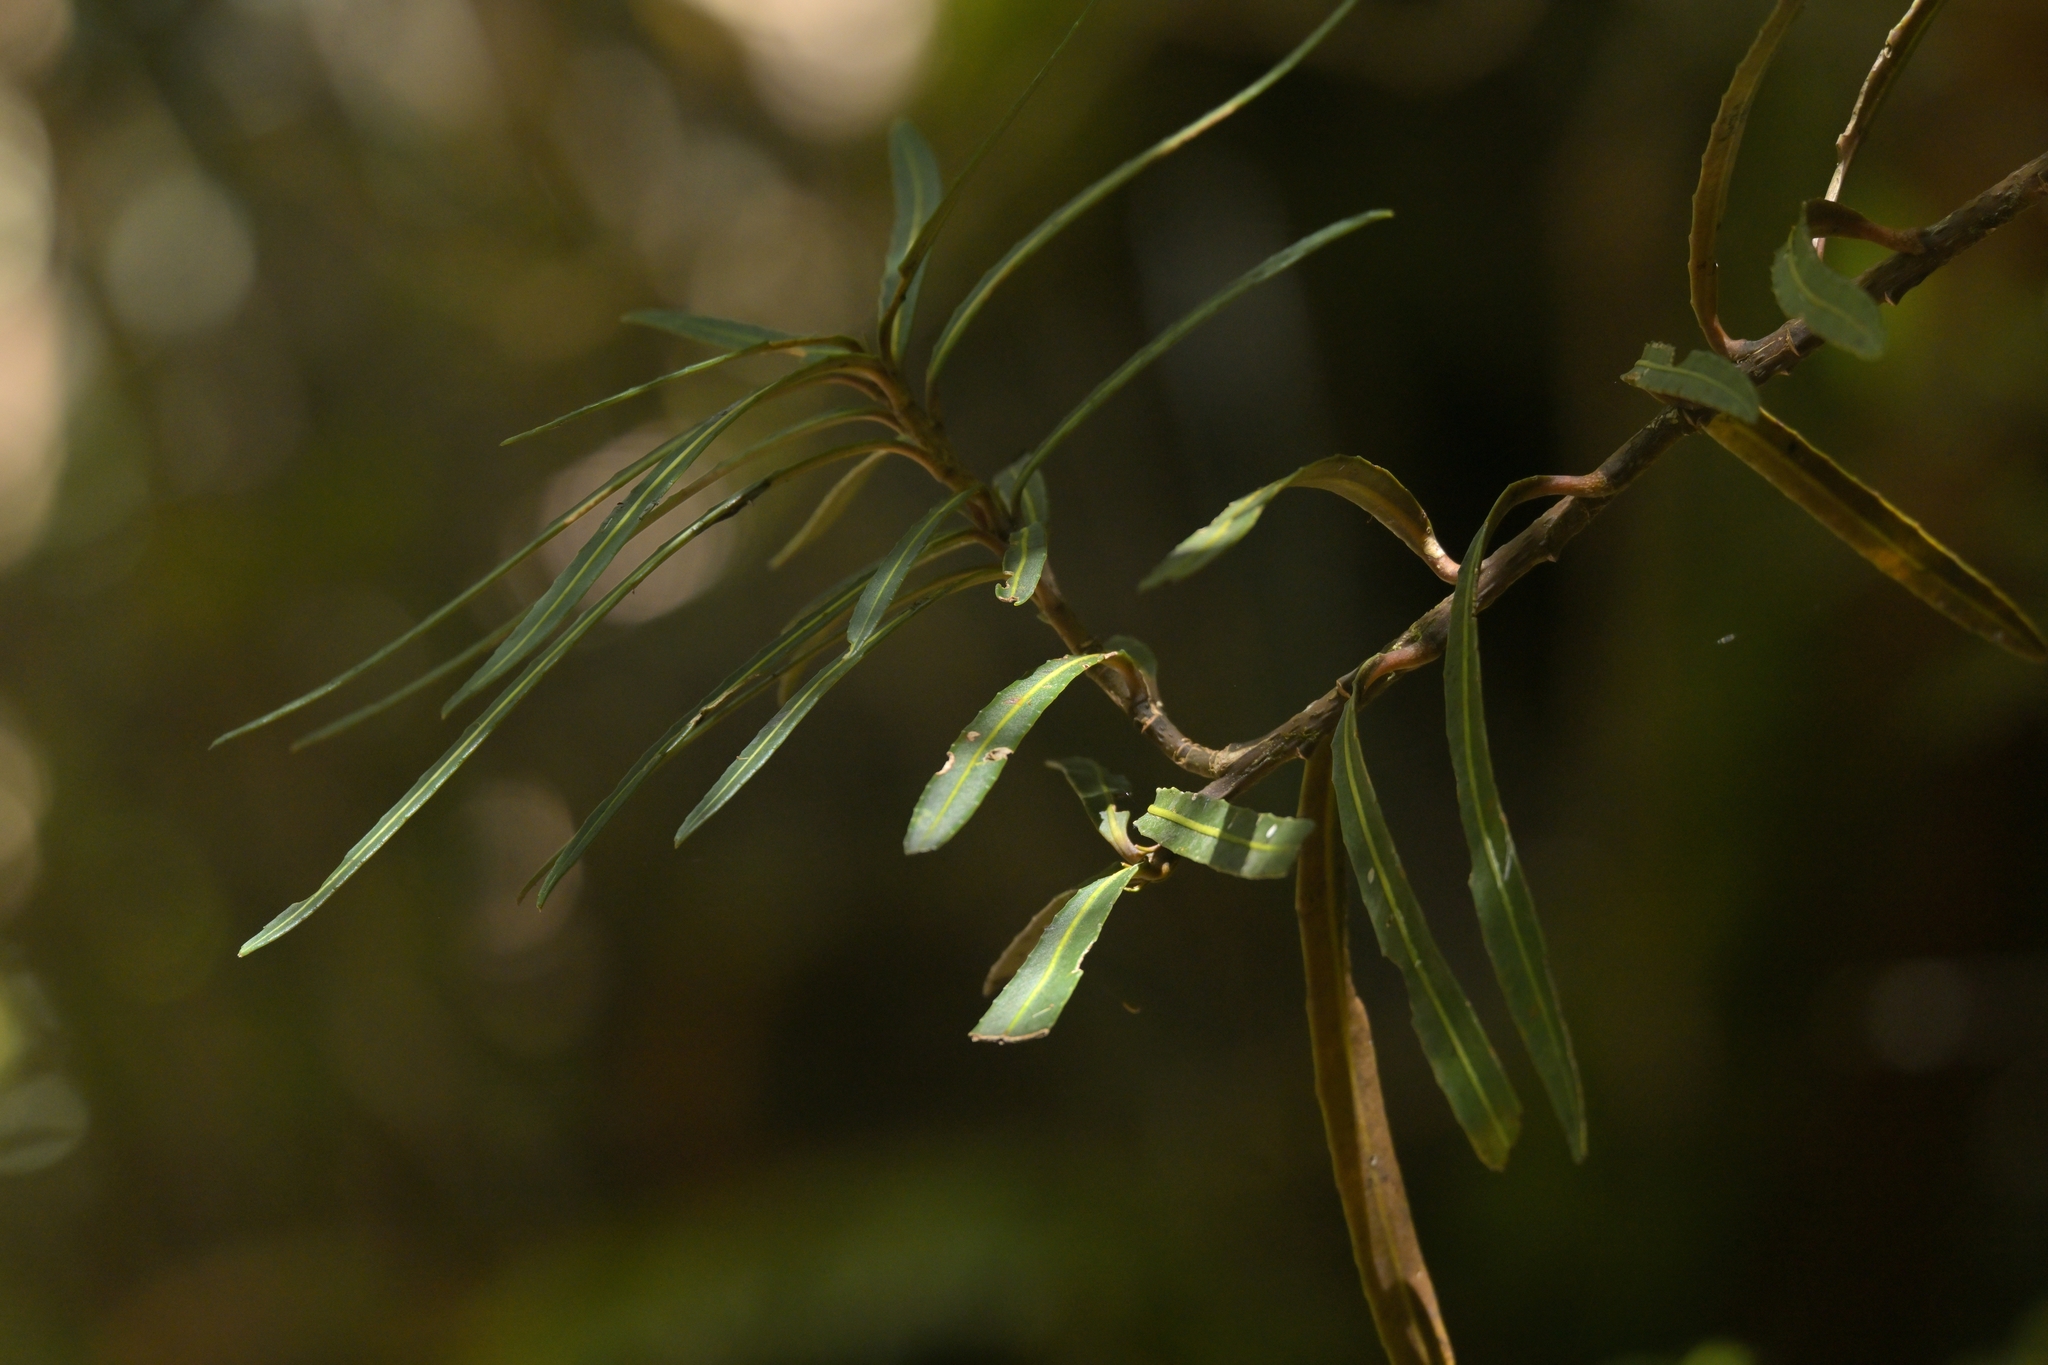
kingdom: Plantae
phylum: Tracheophyta
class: Magnoliopsida
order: Apiales
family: Araliaceae
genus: Pseudopanax
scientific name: Pseudopanax linearis
